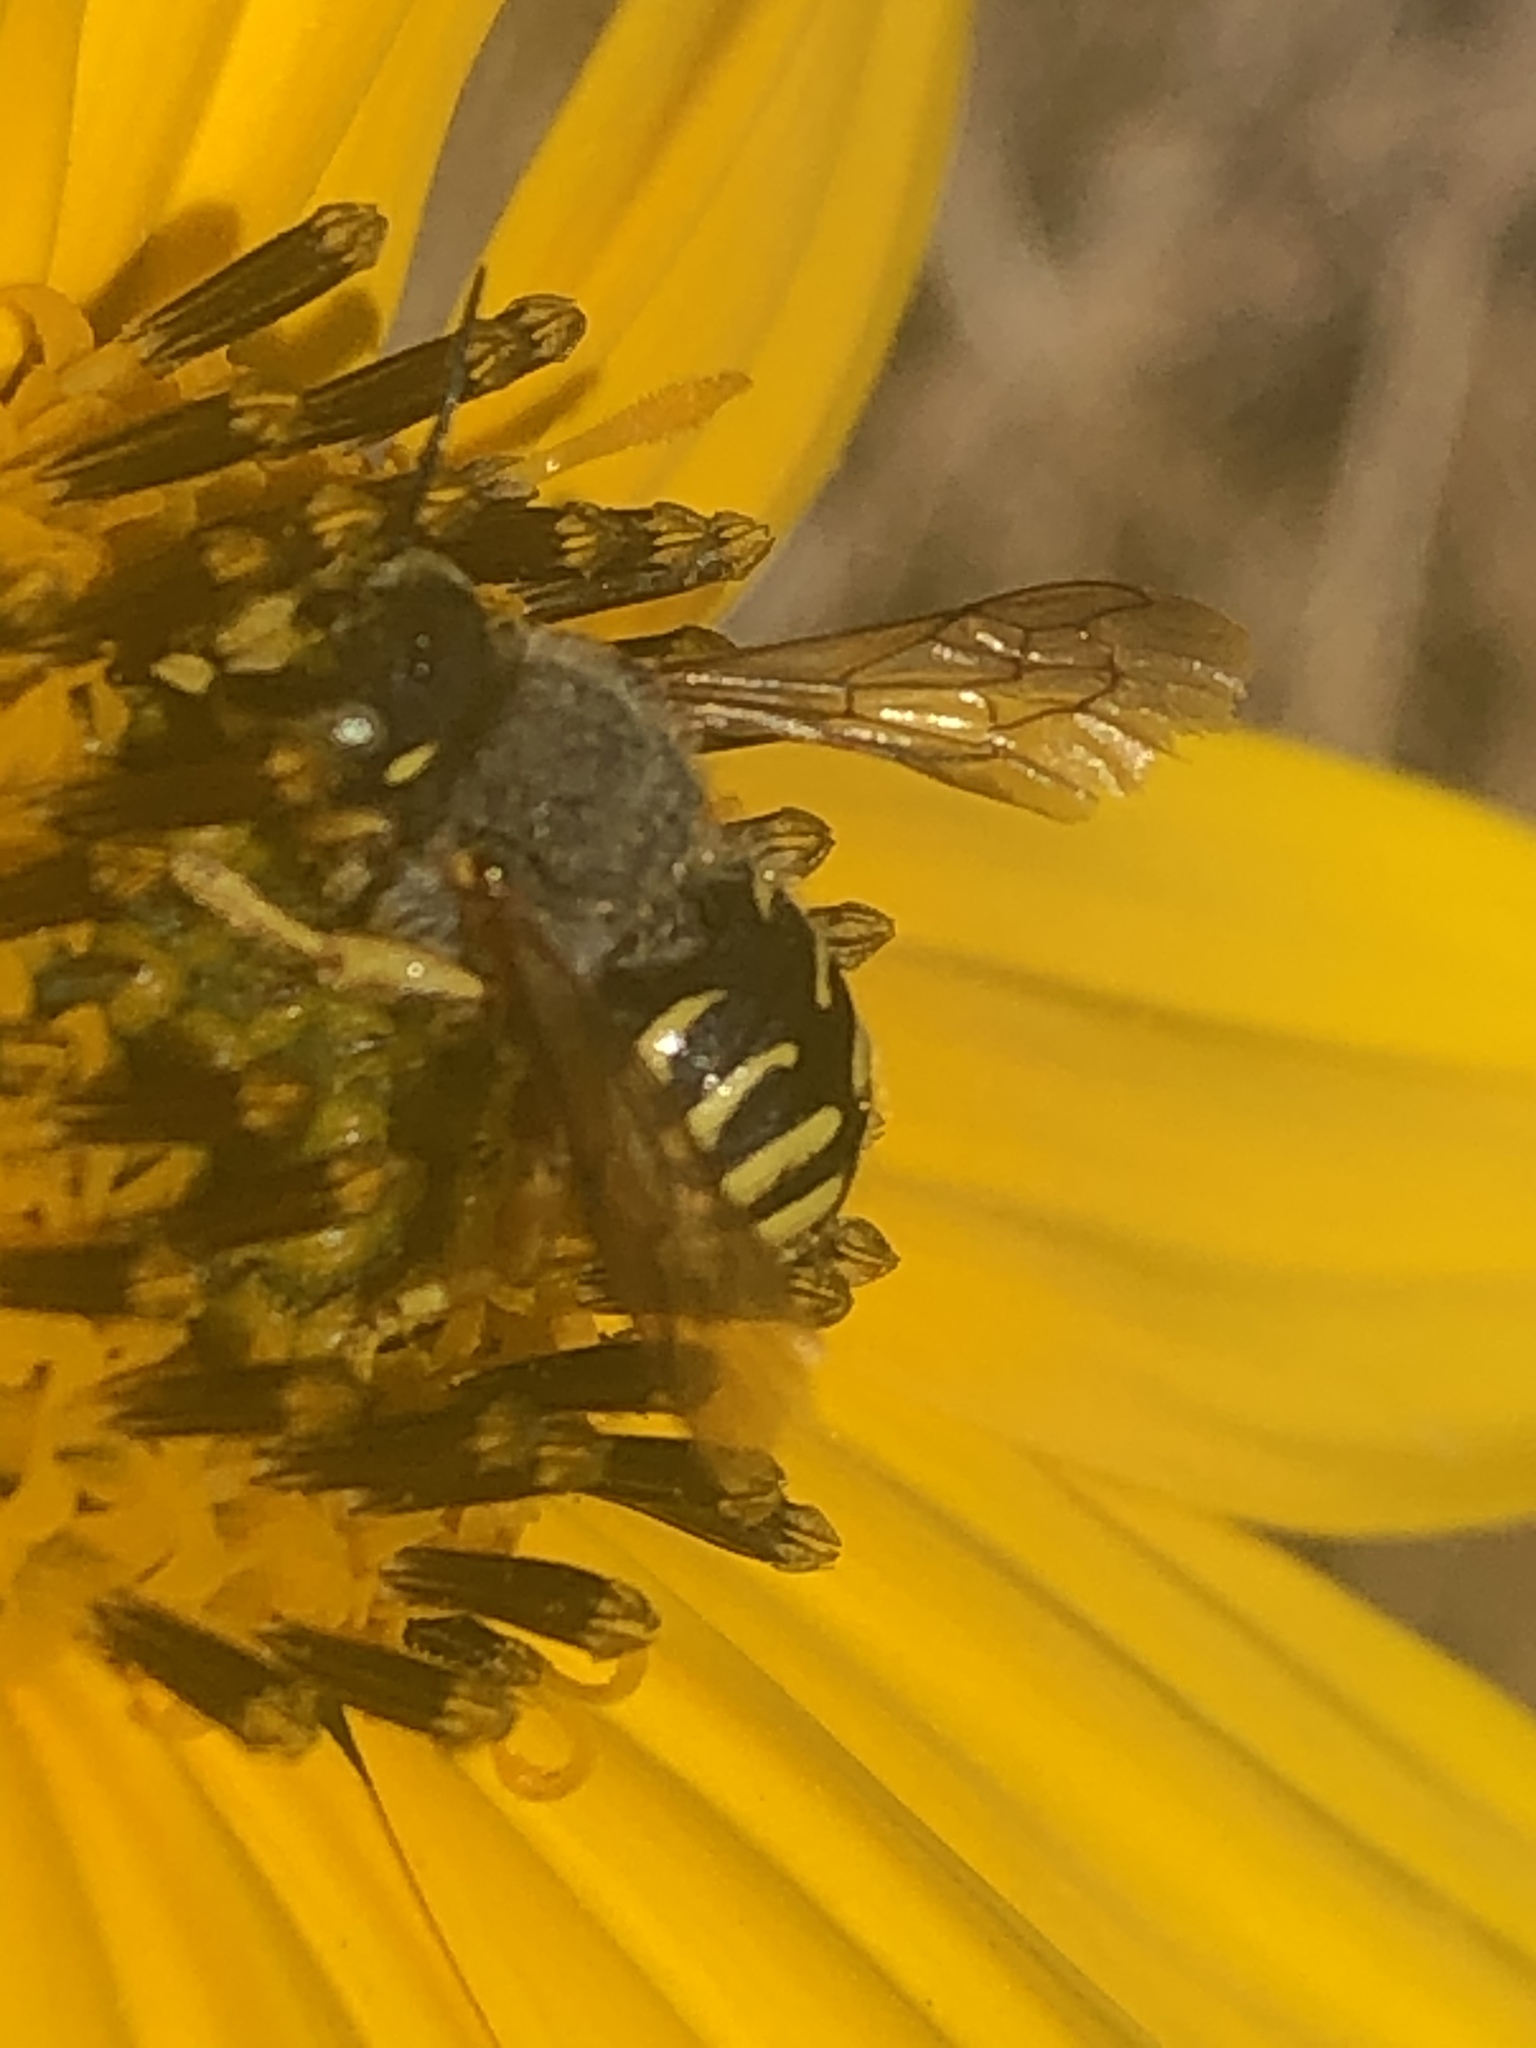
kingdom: Animalia
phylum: Arthropoda
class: Insecta
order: Hymenoptera
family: Megachilidae
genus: Anthidium
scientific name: Anthidium oblongatum
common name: Oblong wool carder bee
